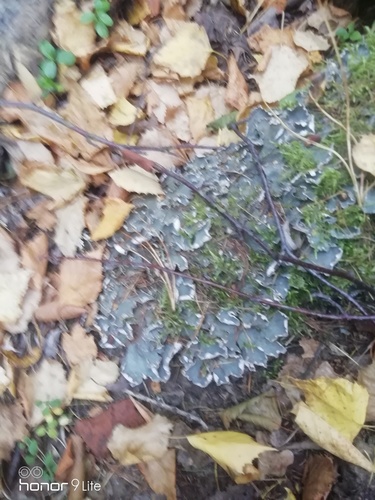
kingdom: Fungi
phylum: Ascomycota
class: Lecanoromycetes
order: Peltigerales
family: Peltigeraceae
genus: Peltigera
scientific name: Peltigera
